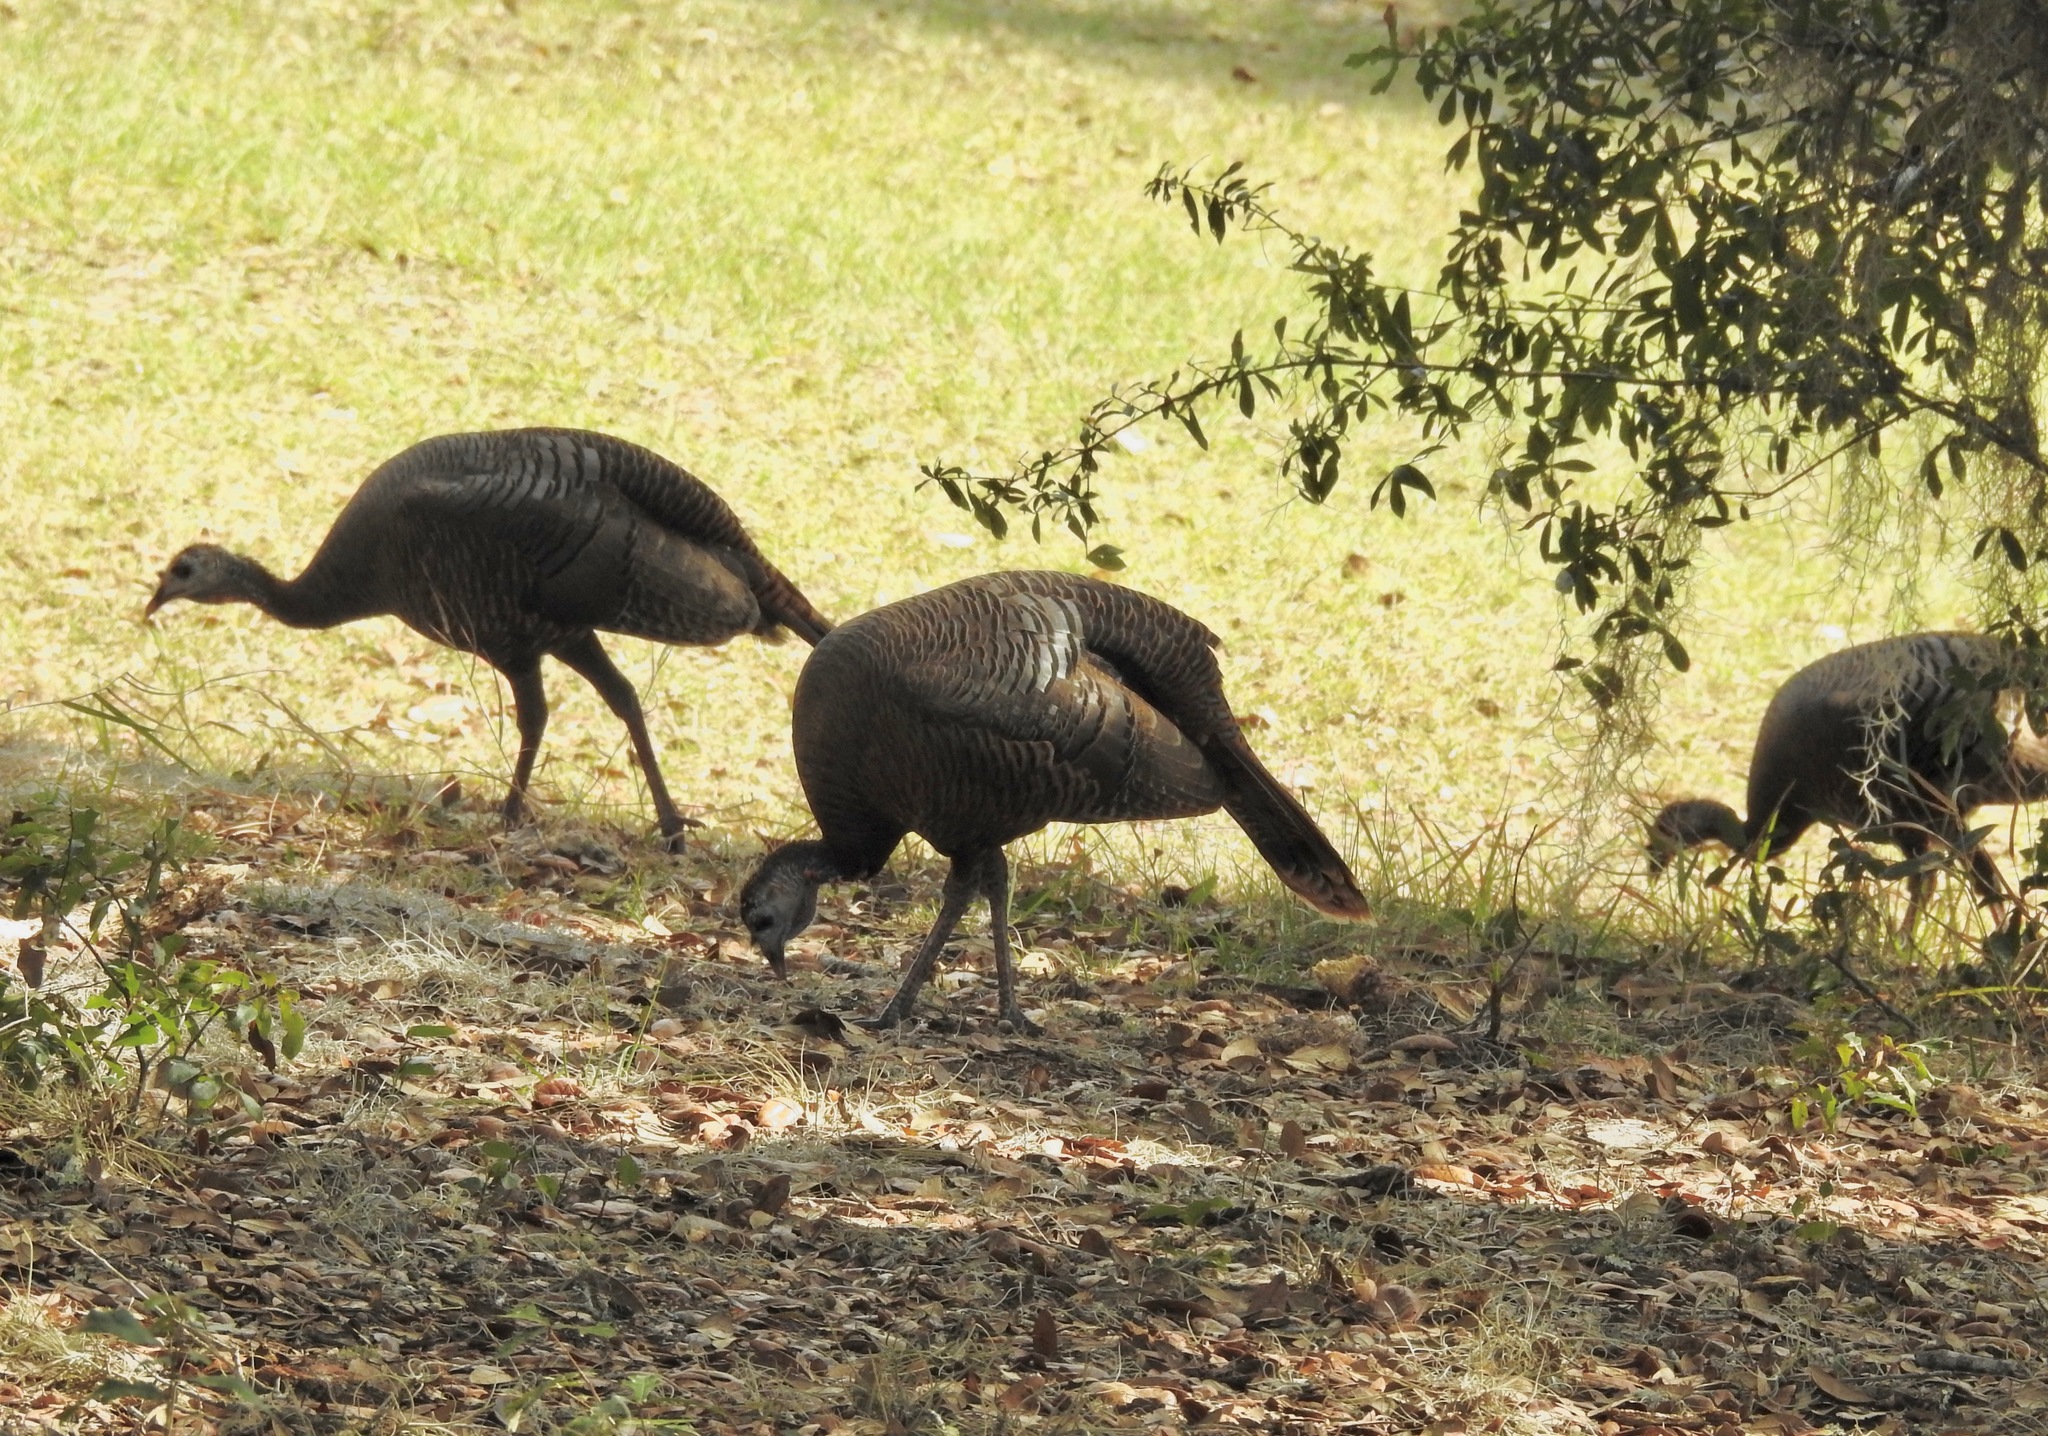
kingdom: Animalia
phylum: Chordata
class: Aves
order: Galliformes
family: Phasianidae
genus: Meleagris
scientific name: Meleagris gallopavo
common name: Wild turkey
